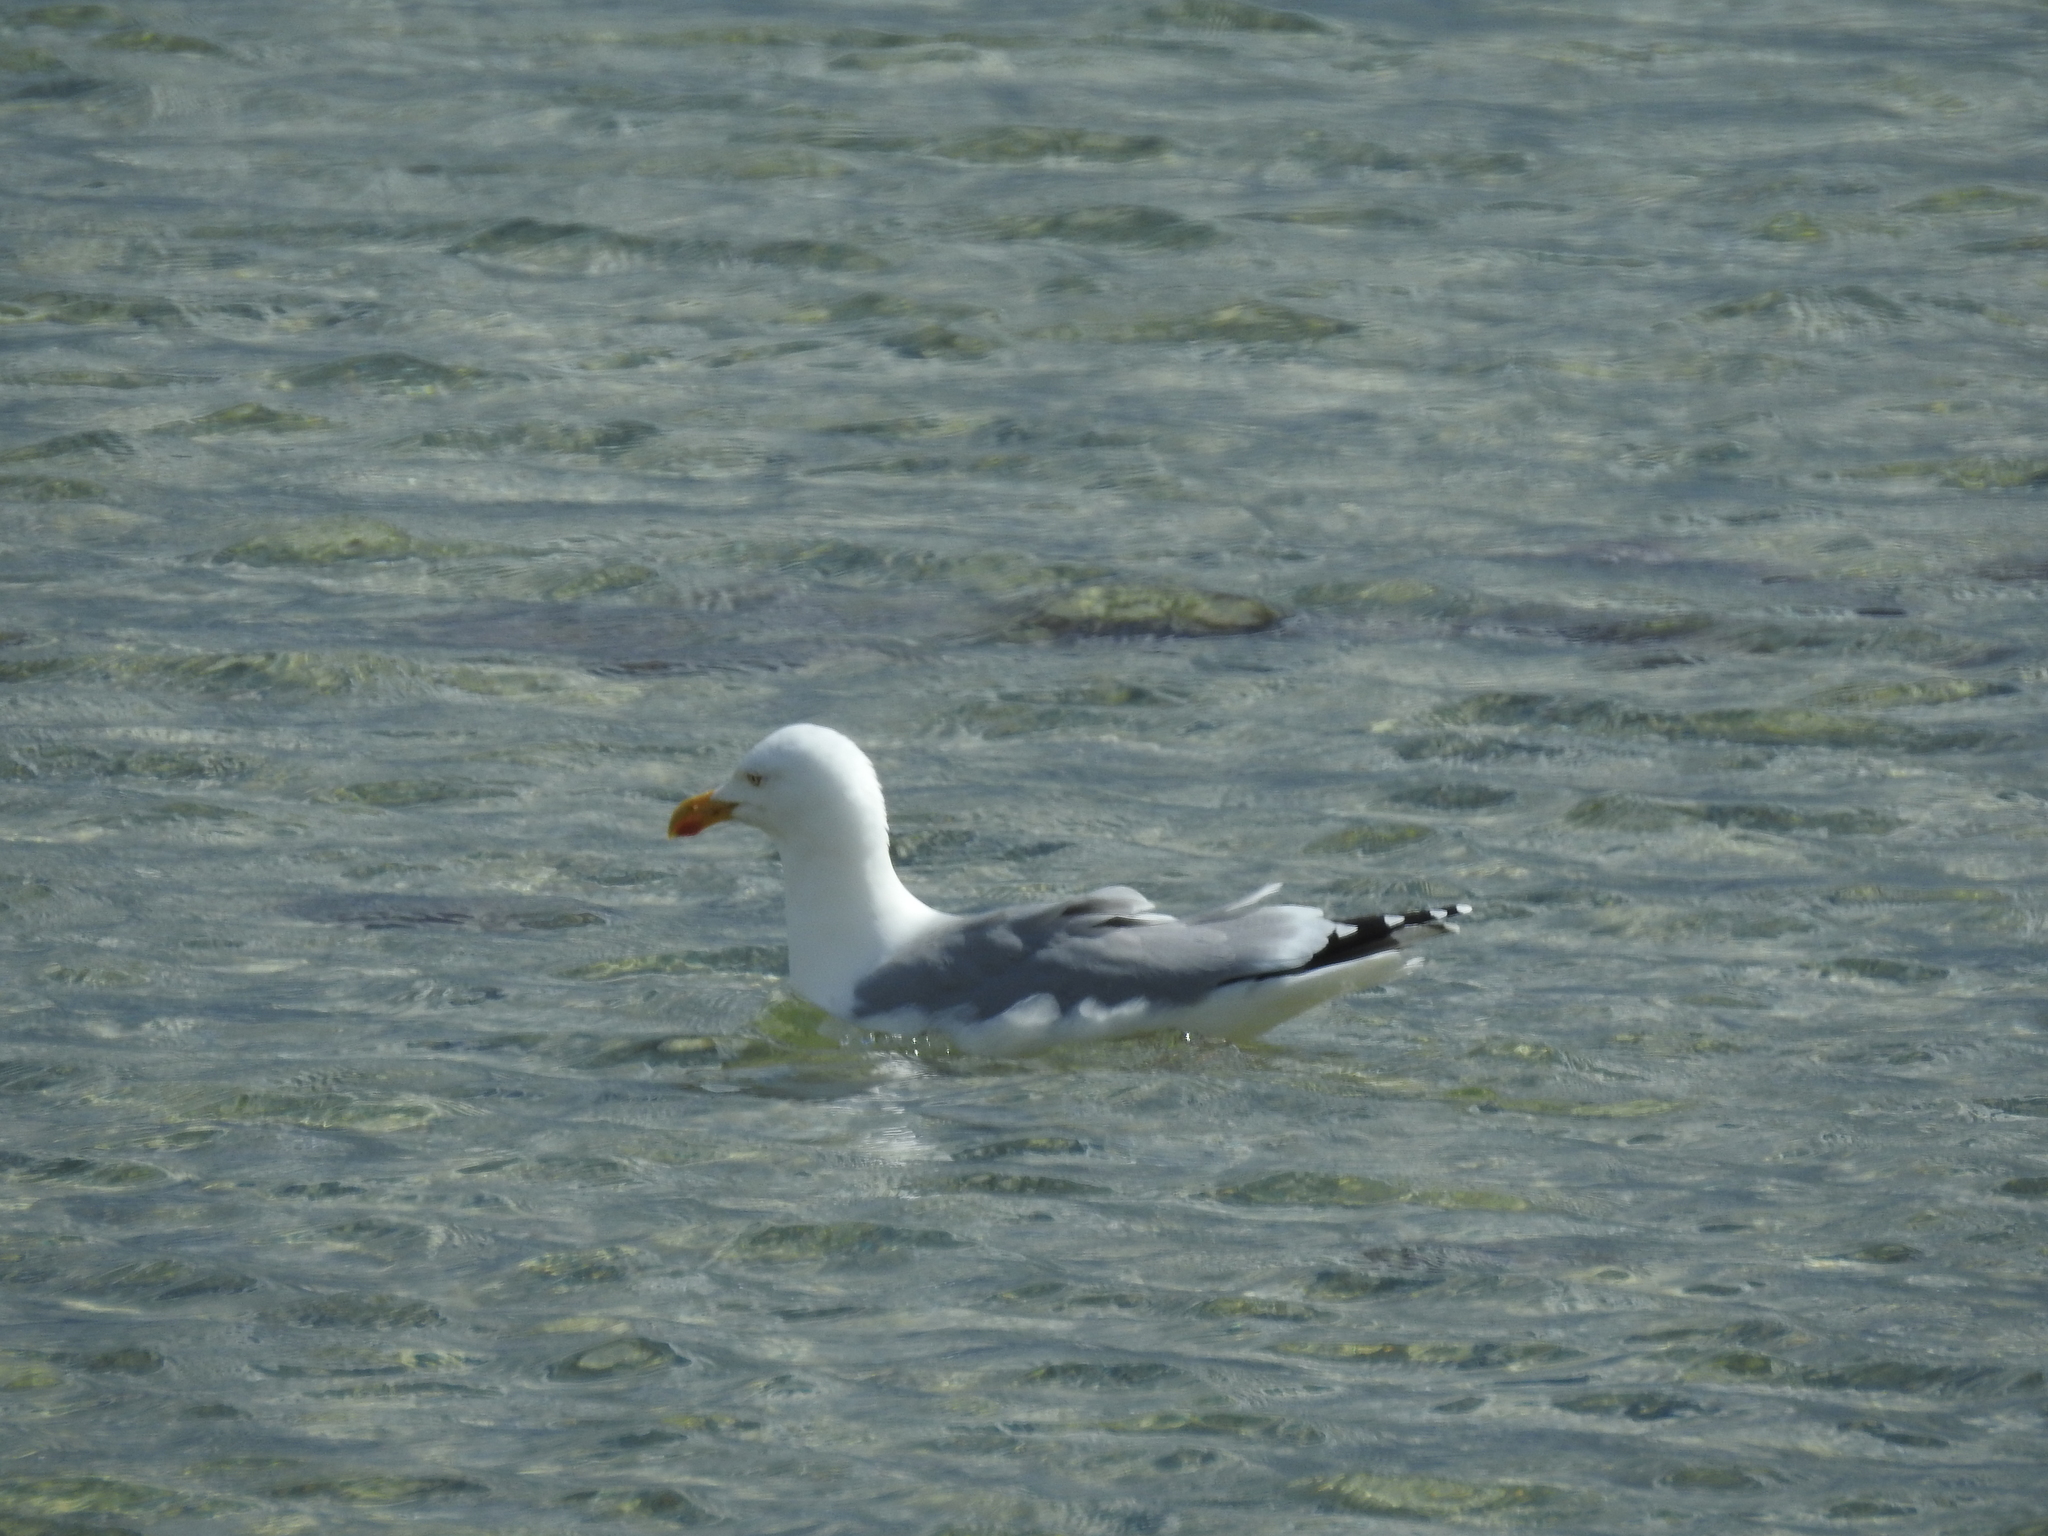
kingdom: Animalia
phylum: Chordata
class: Aves
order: Charadriiformes
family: Laridae
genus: Larus
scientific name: Larus argentatus
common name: Herring gull
